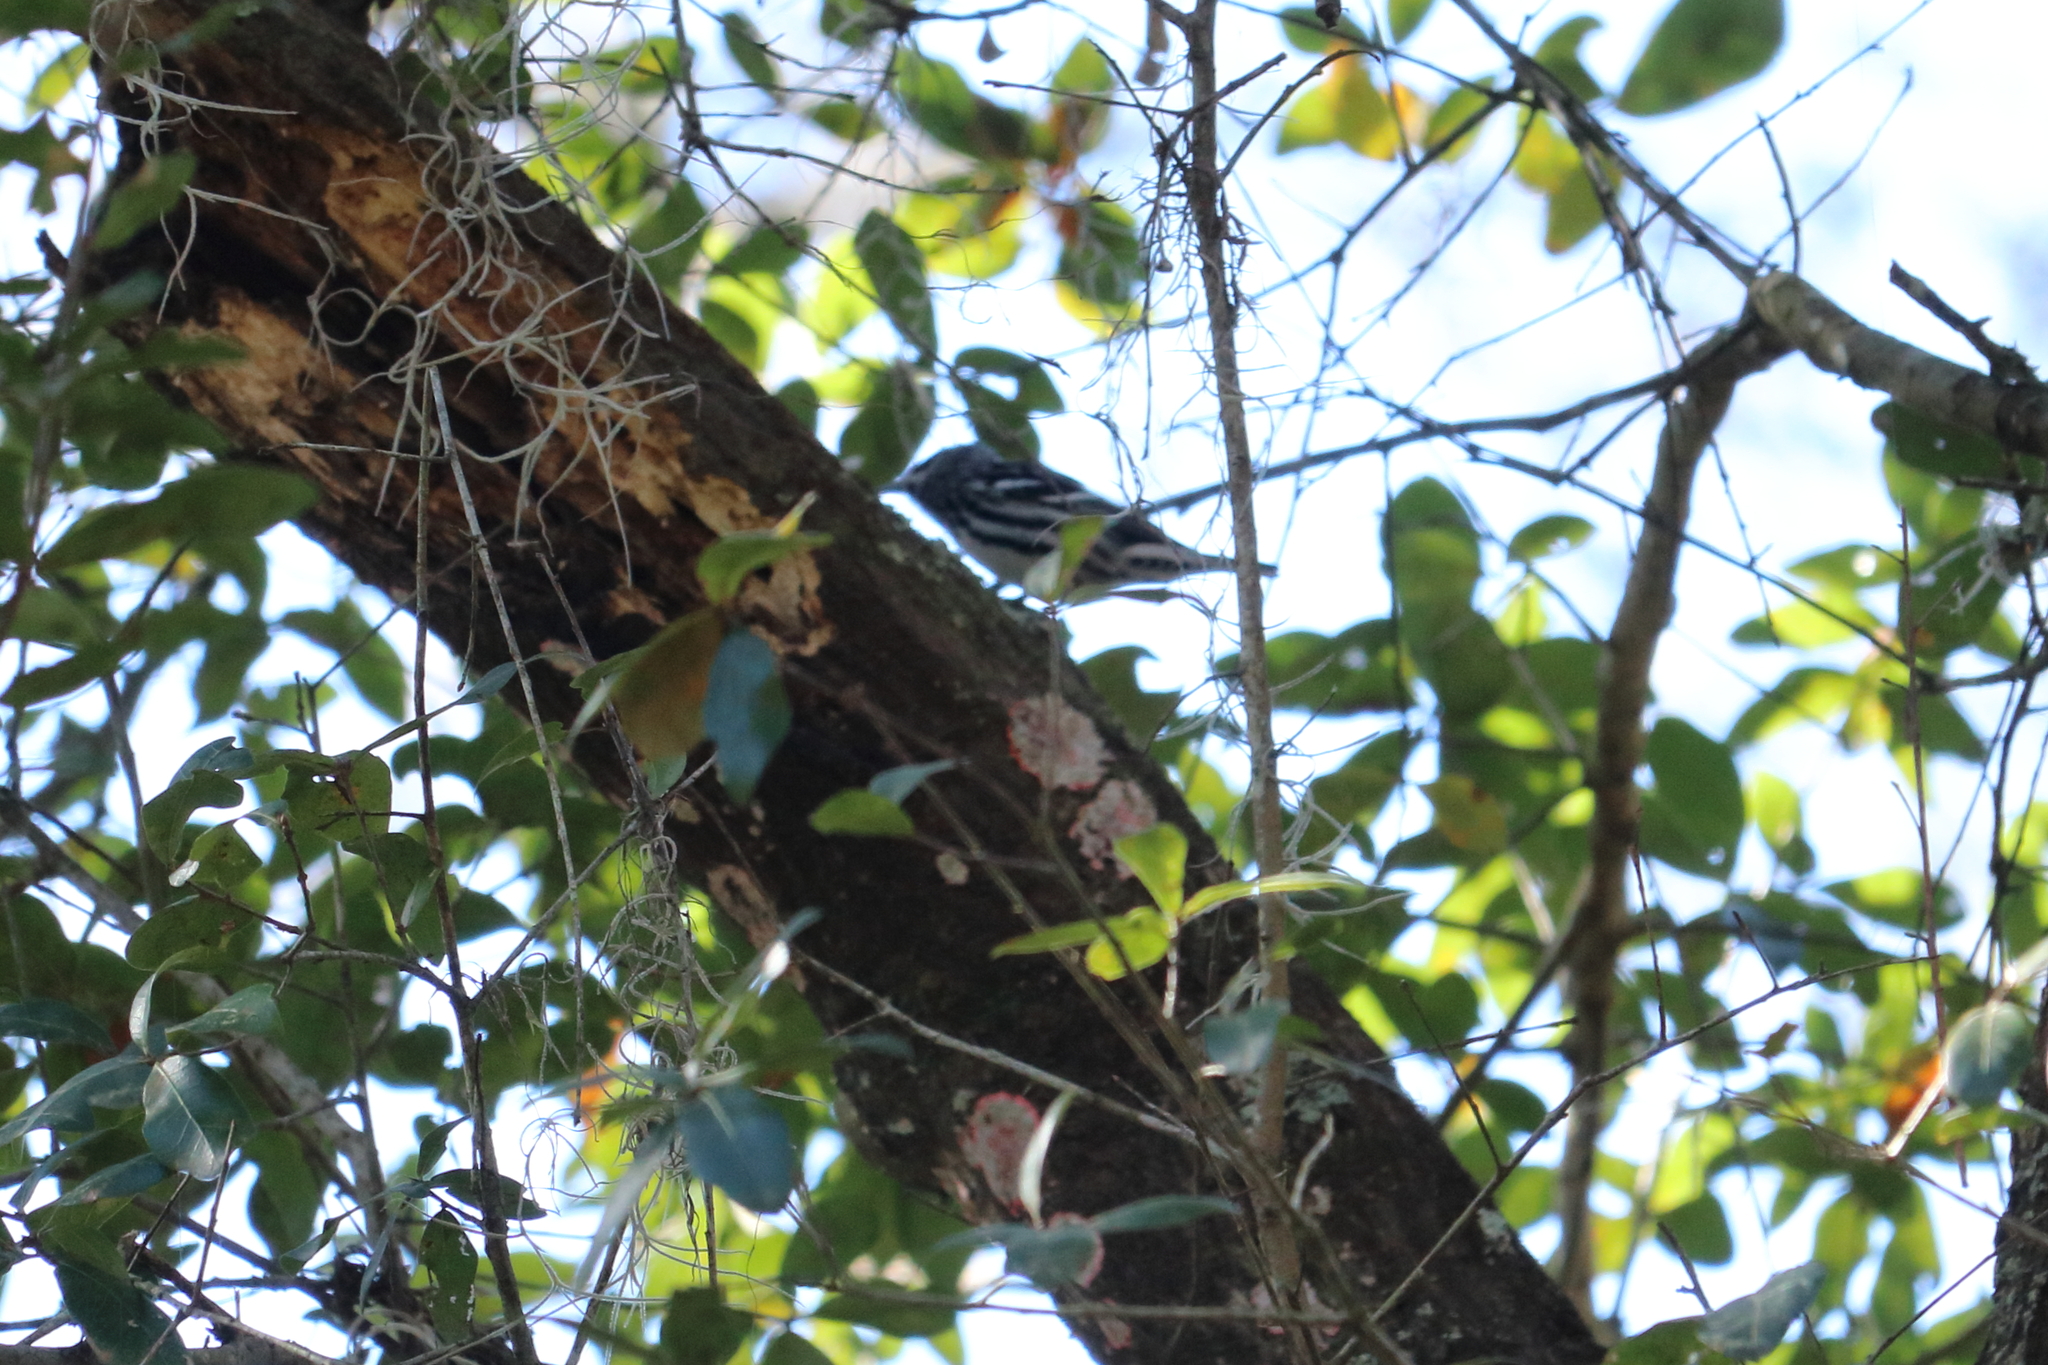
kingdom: Animalia
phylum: Chordata
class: Aves
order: Passeriformes
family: Parulidae
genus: Mniotilta
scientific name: Mniotilta varia
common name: Black-and-white warbler
